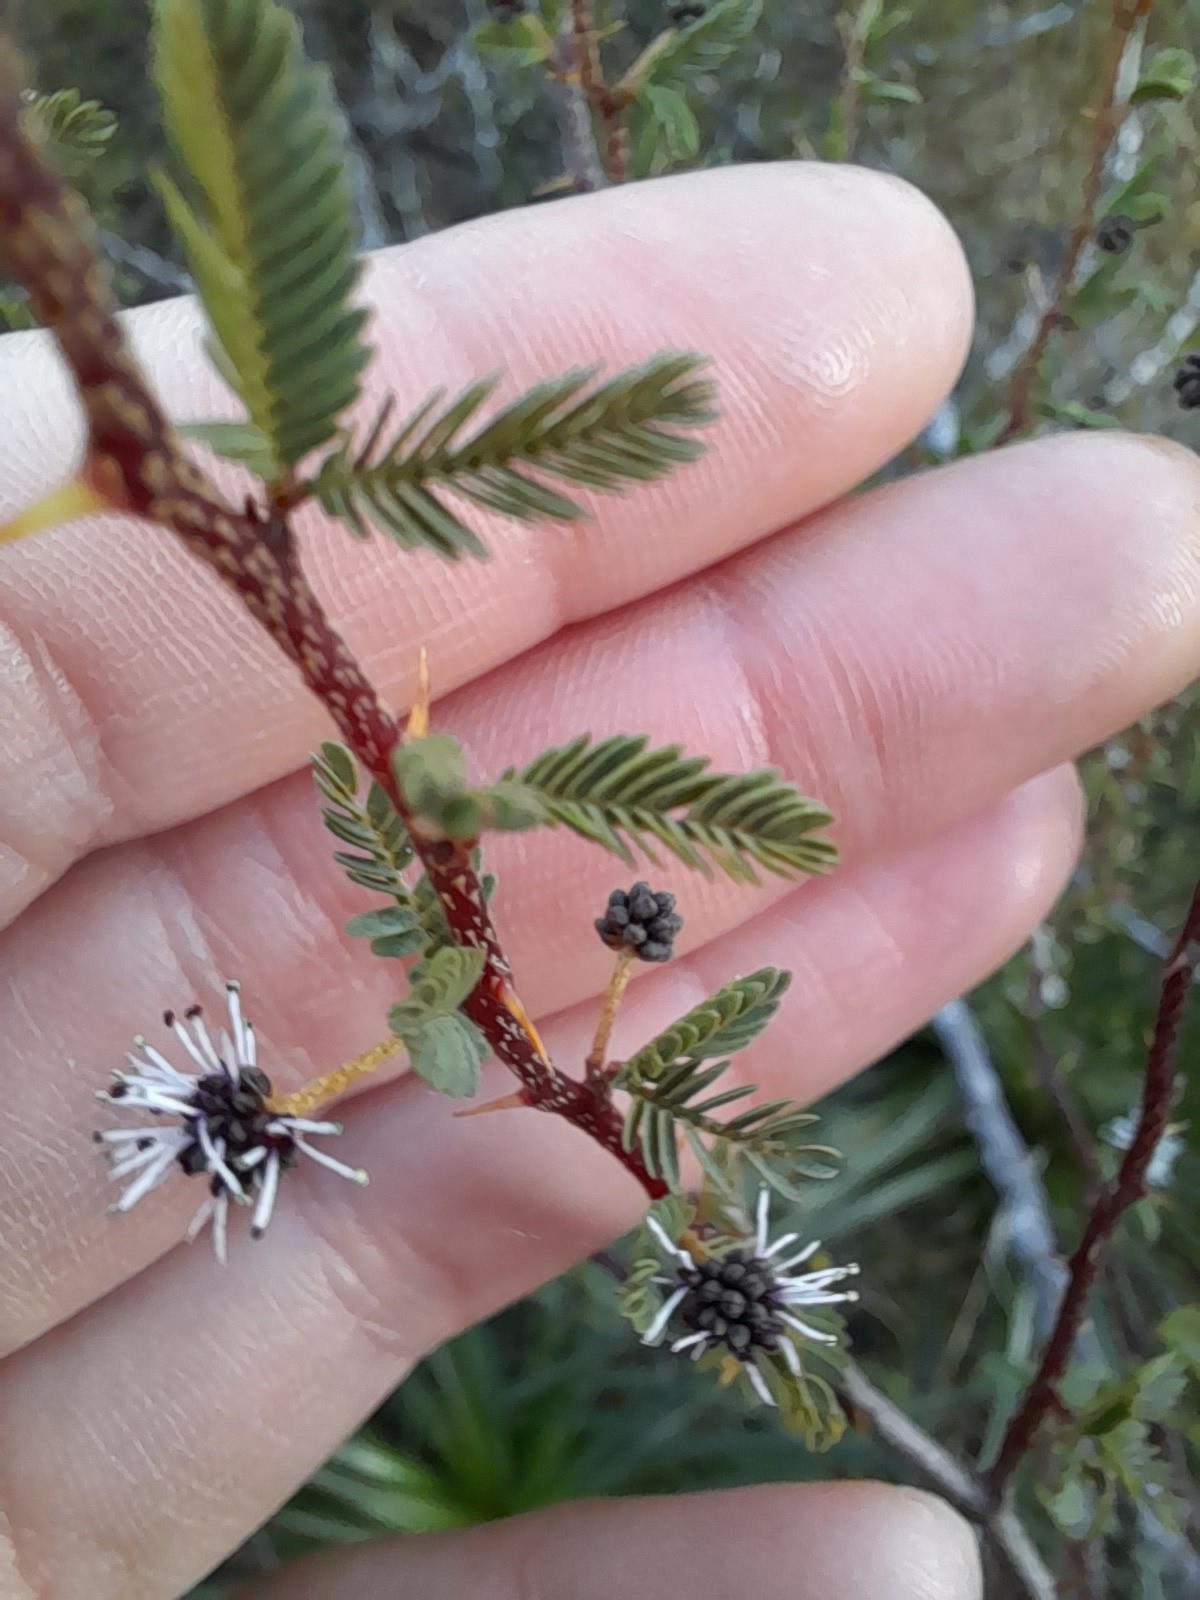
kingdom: Plantae
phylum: Tracheophyta
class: Magnoliopsida
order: Fabales
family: Fabaceae
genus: Mimosa
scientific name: Mimosa ramulosa
